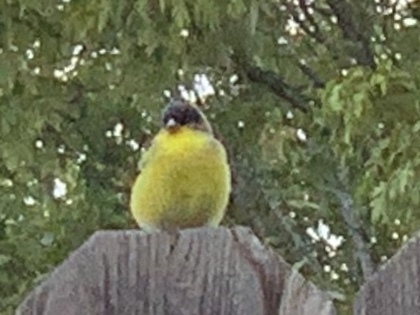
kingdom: Animalia
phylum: Chordata
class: Aves
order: Passeriformes
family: Fringillidae
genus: Spinus
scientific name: Spinus psaltria
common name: Lesser goldfinch
